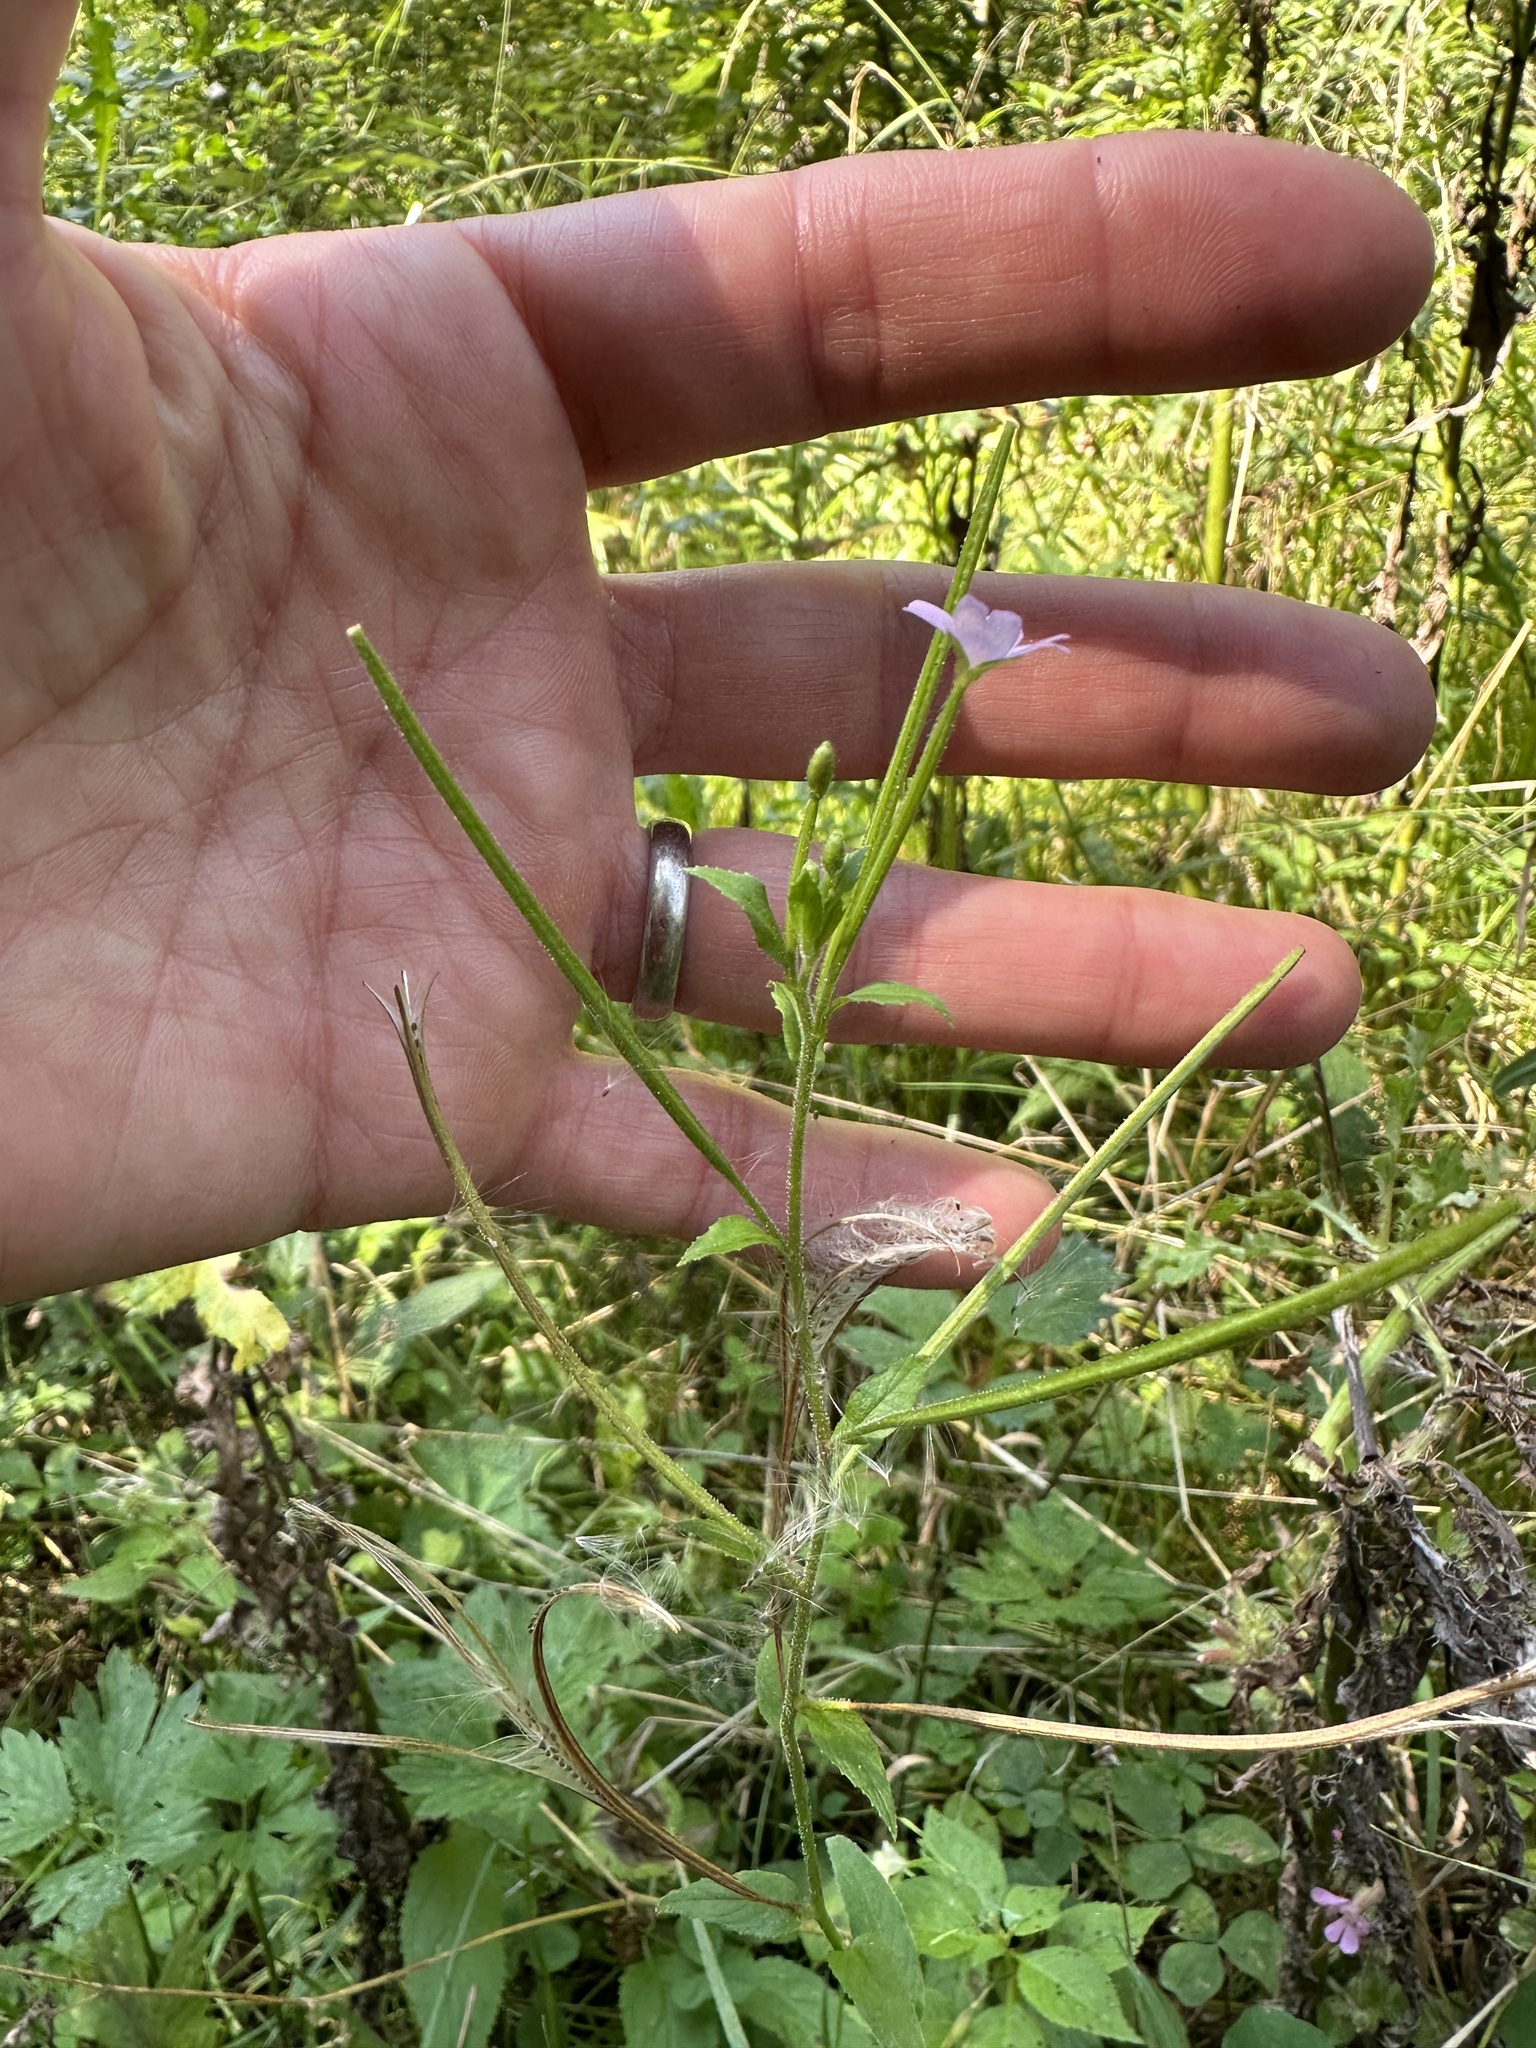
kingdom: Plantae
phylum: Tracheophyta
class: Magnoliopsida
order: Myrtales
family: Onagraceae
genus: Epilobium
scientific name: Epilobium parviflorum
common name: Hoary willowherb
